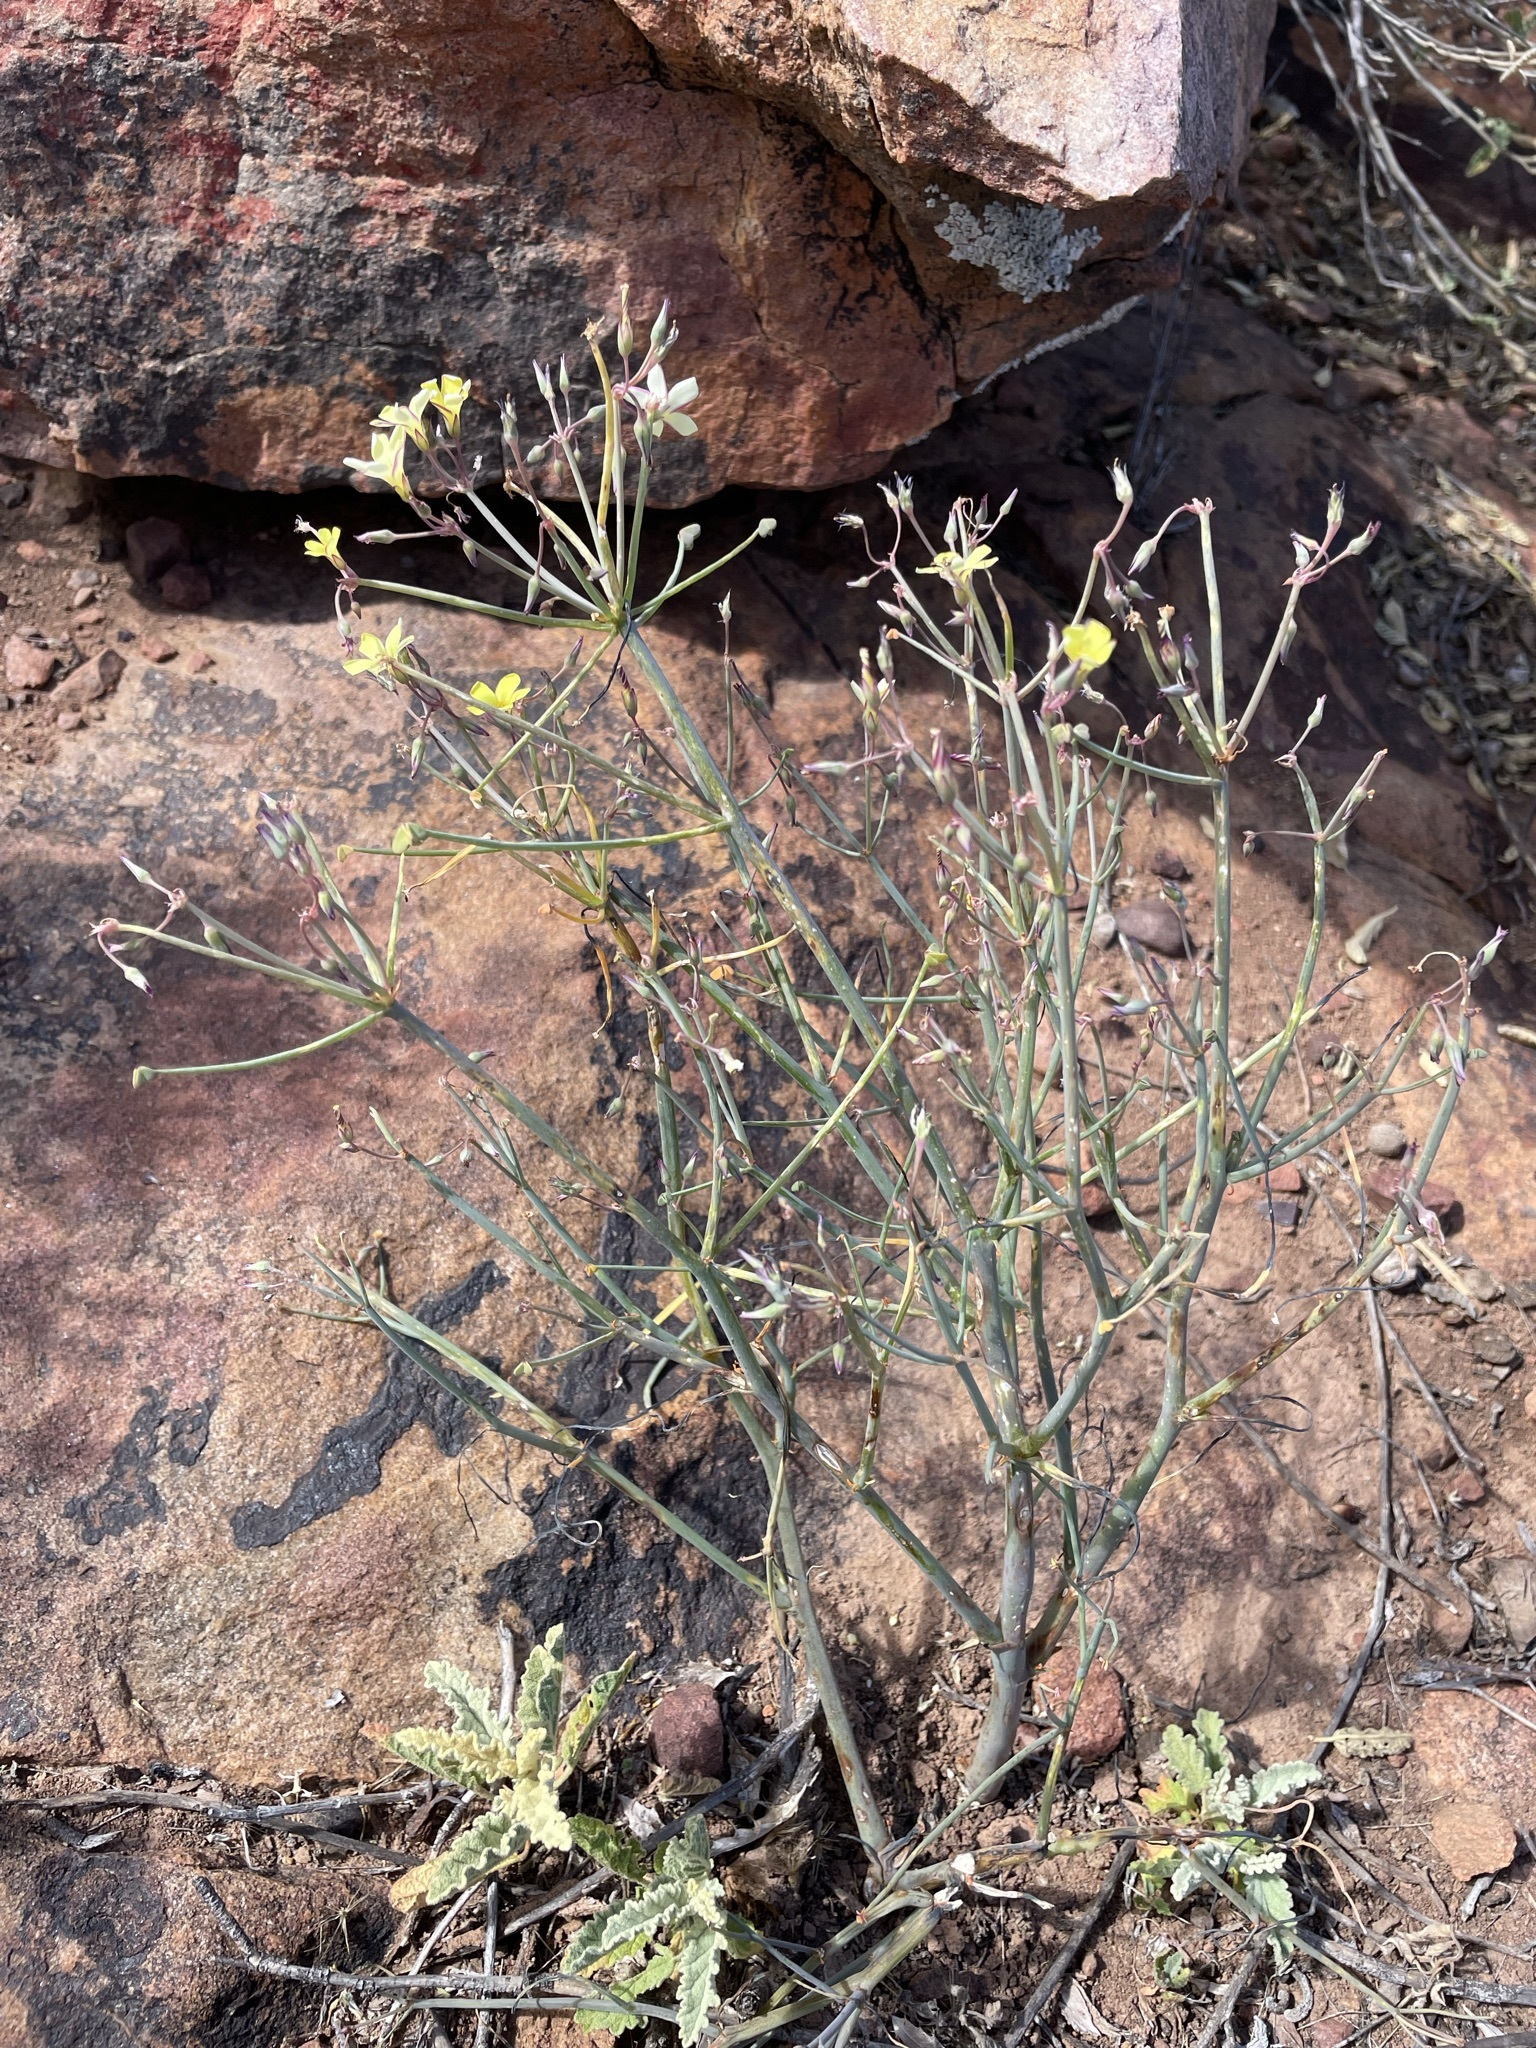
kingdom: Plantae
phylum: Tracheophyta
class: Magnoliopsida
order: Oxalidales
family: Oxalidaceae
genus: Oxalis
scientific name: Oxalis knuthiana
